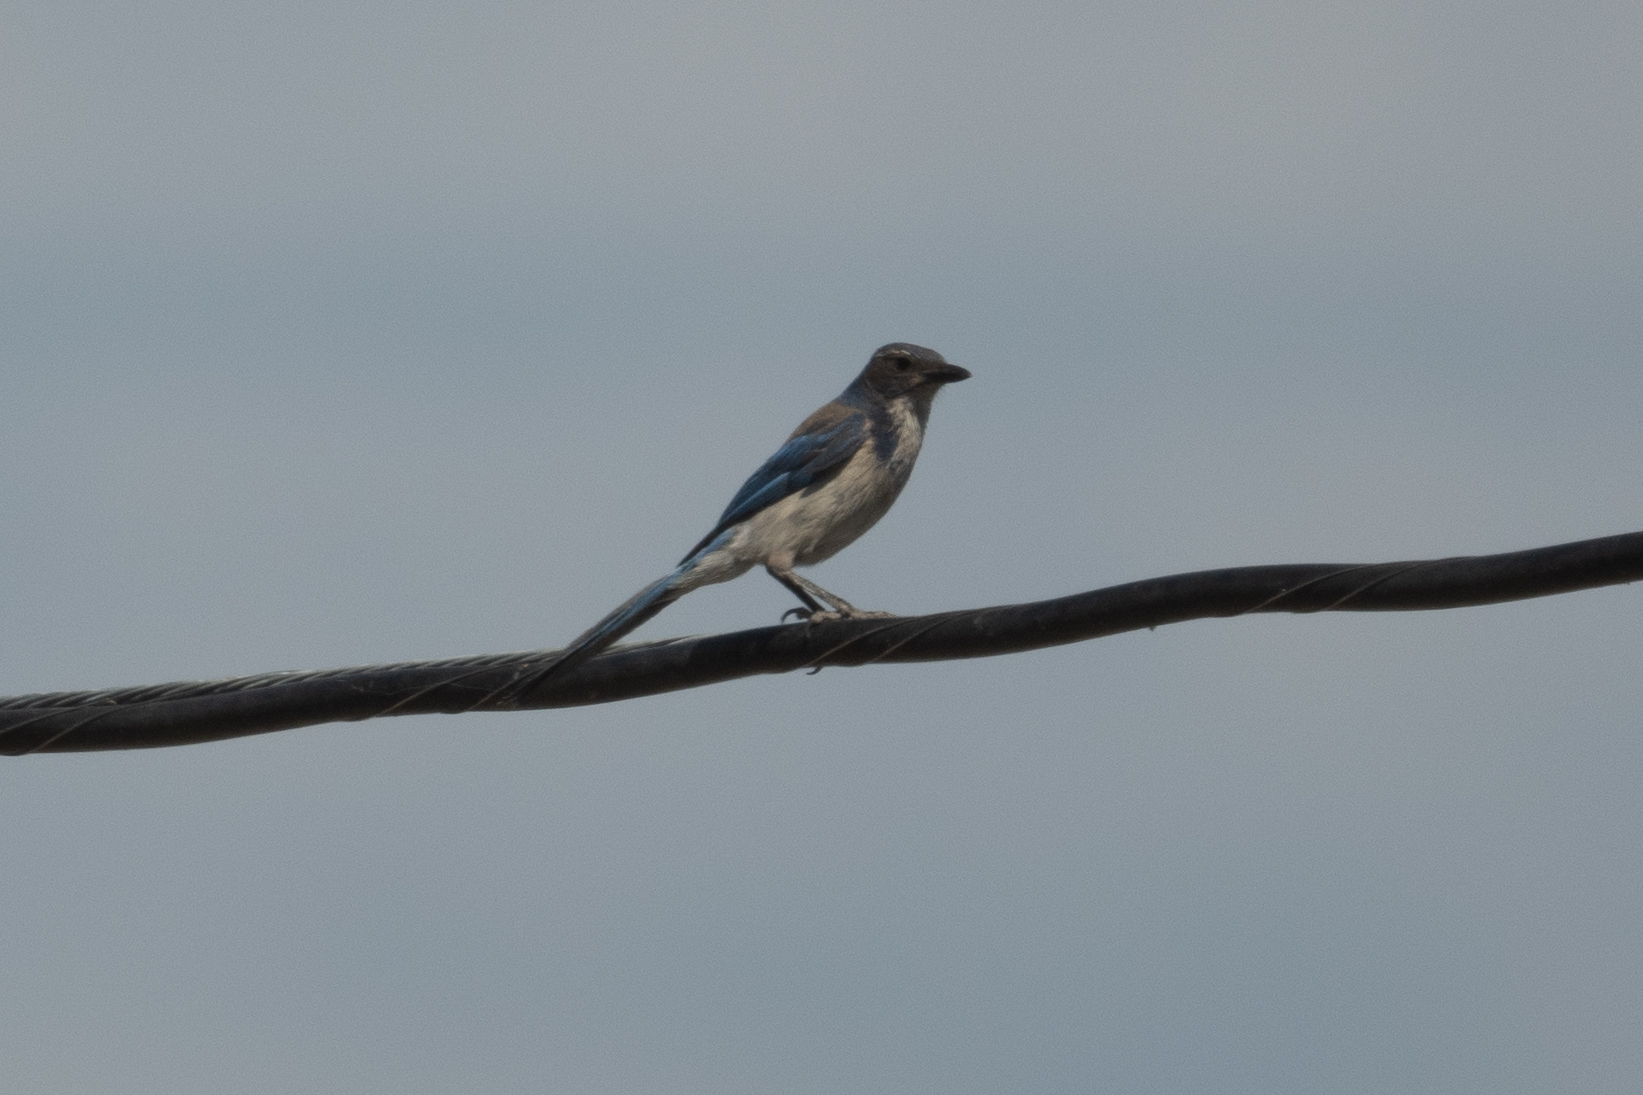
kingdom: Animalia
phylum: Chordata
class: Aves
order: Passeriformes
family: Corvidae
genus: Aphelocoma
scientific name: Aphelocoma californica
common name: California scrub-jay
